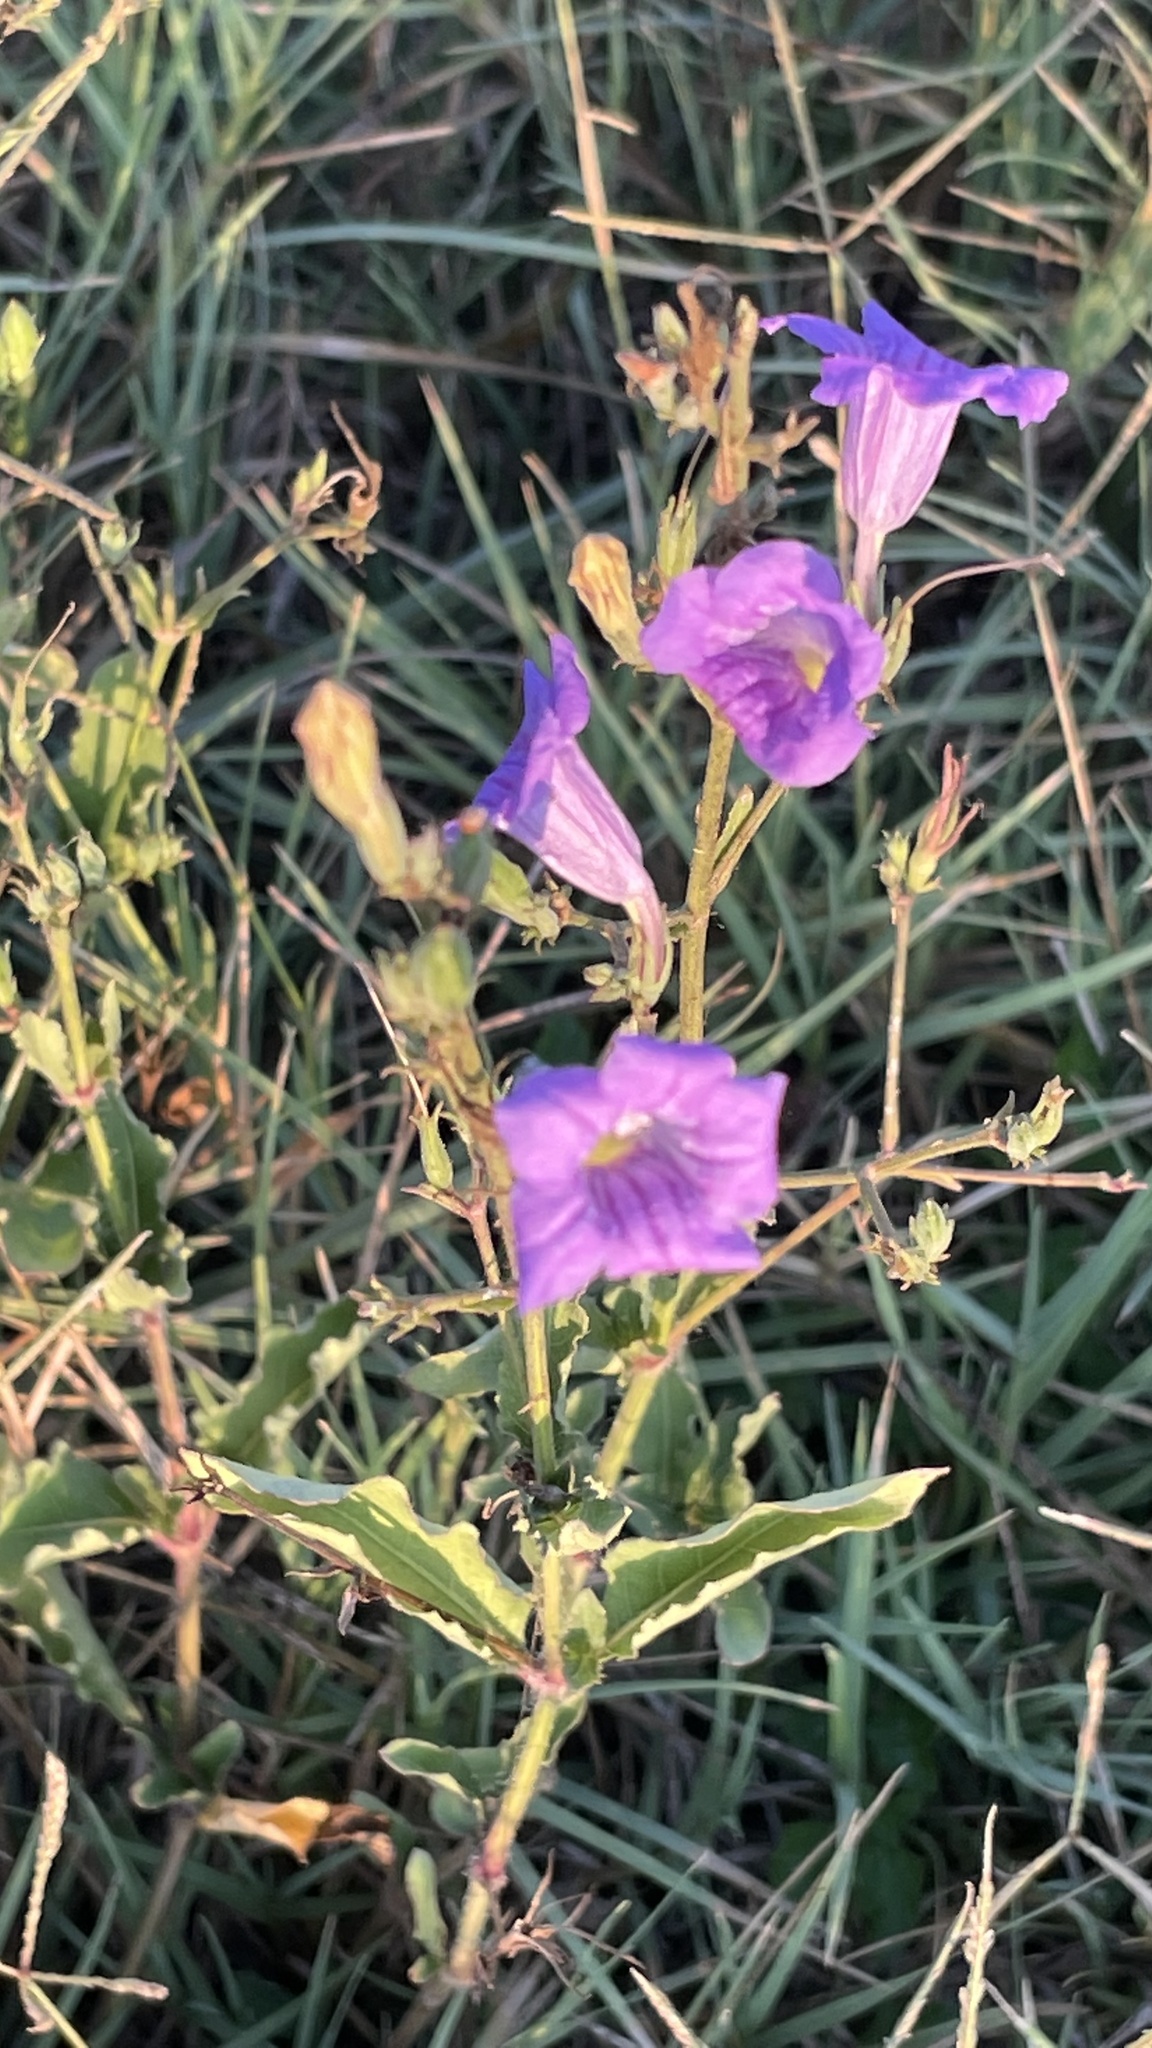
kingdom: Plantae
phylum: Tracheophyta
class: Magnoliopsida
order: Lamiales
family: Acanthaceae
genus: Ruellia
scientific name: Ruellia ciliatiflora
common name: Hairyflower wild petunia
